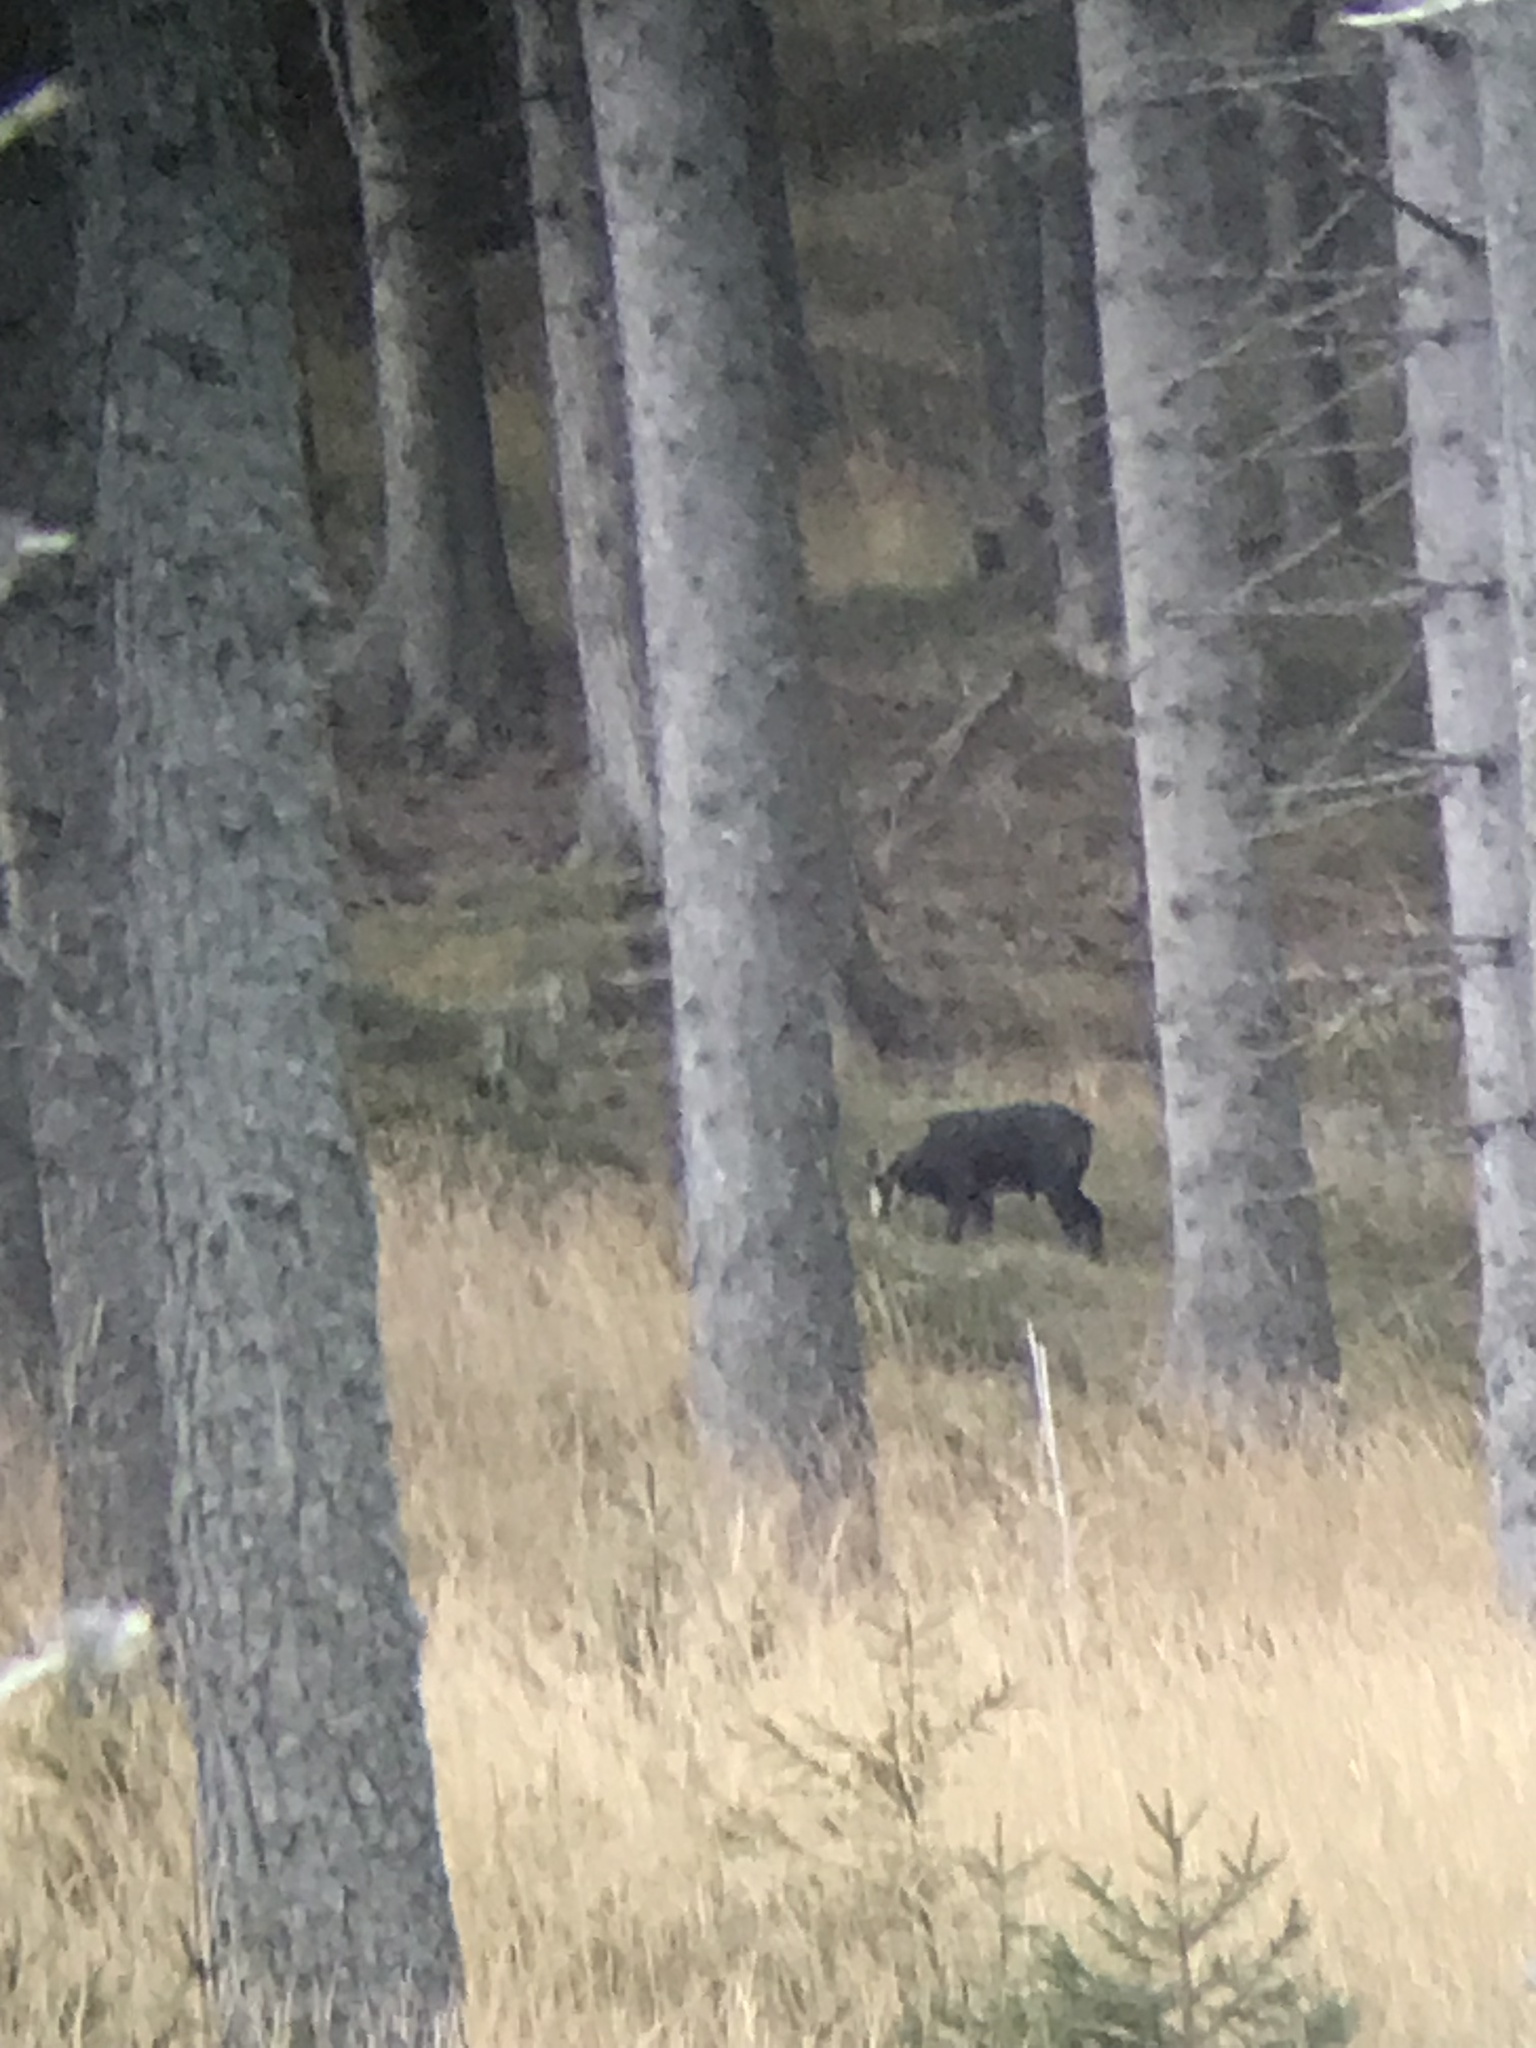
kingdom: Animalia
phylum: Chordata
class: Mammalia
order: Artiodactyla
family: Bovidae
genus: Rupicapra
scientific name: Rupicapra rupicapra
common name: Chamois
